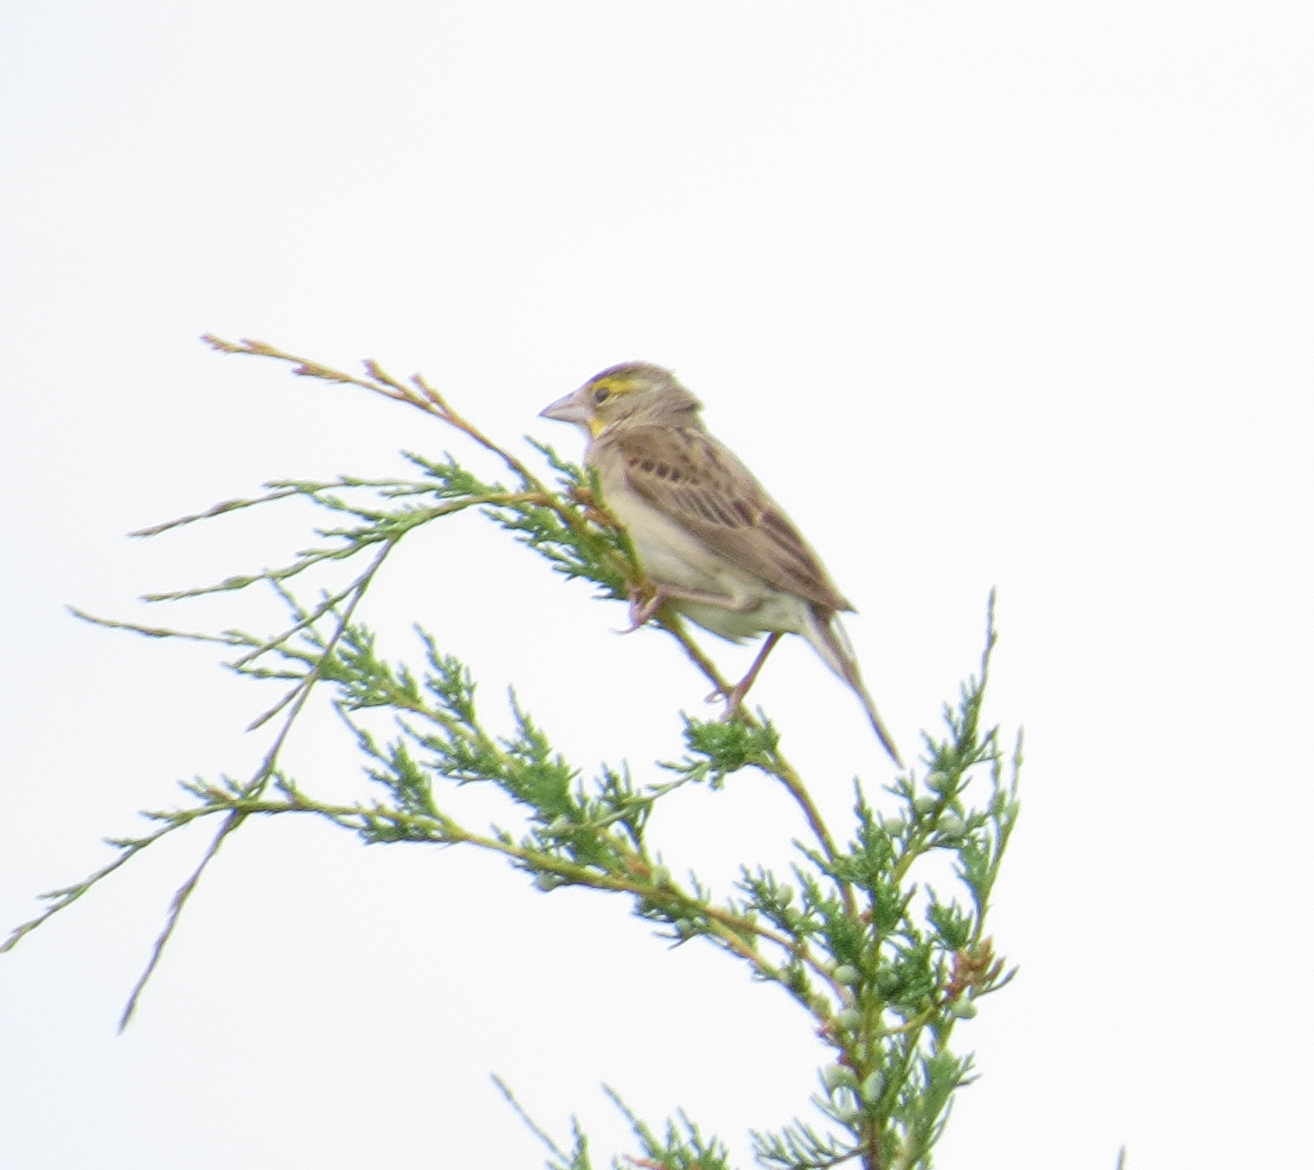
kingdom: Animalia
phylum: Chordata
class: Aves
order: Passeriformes
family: Cardinalidae
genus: Spiza
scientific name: Spiza americana
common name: Dickcissel
